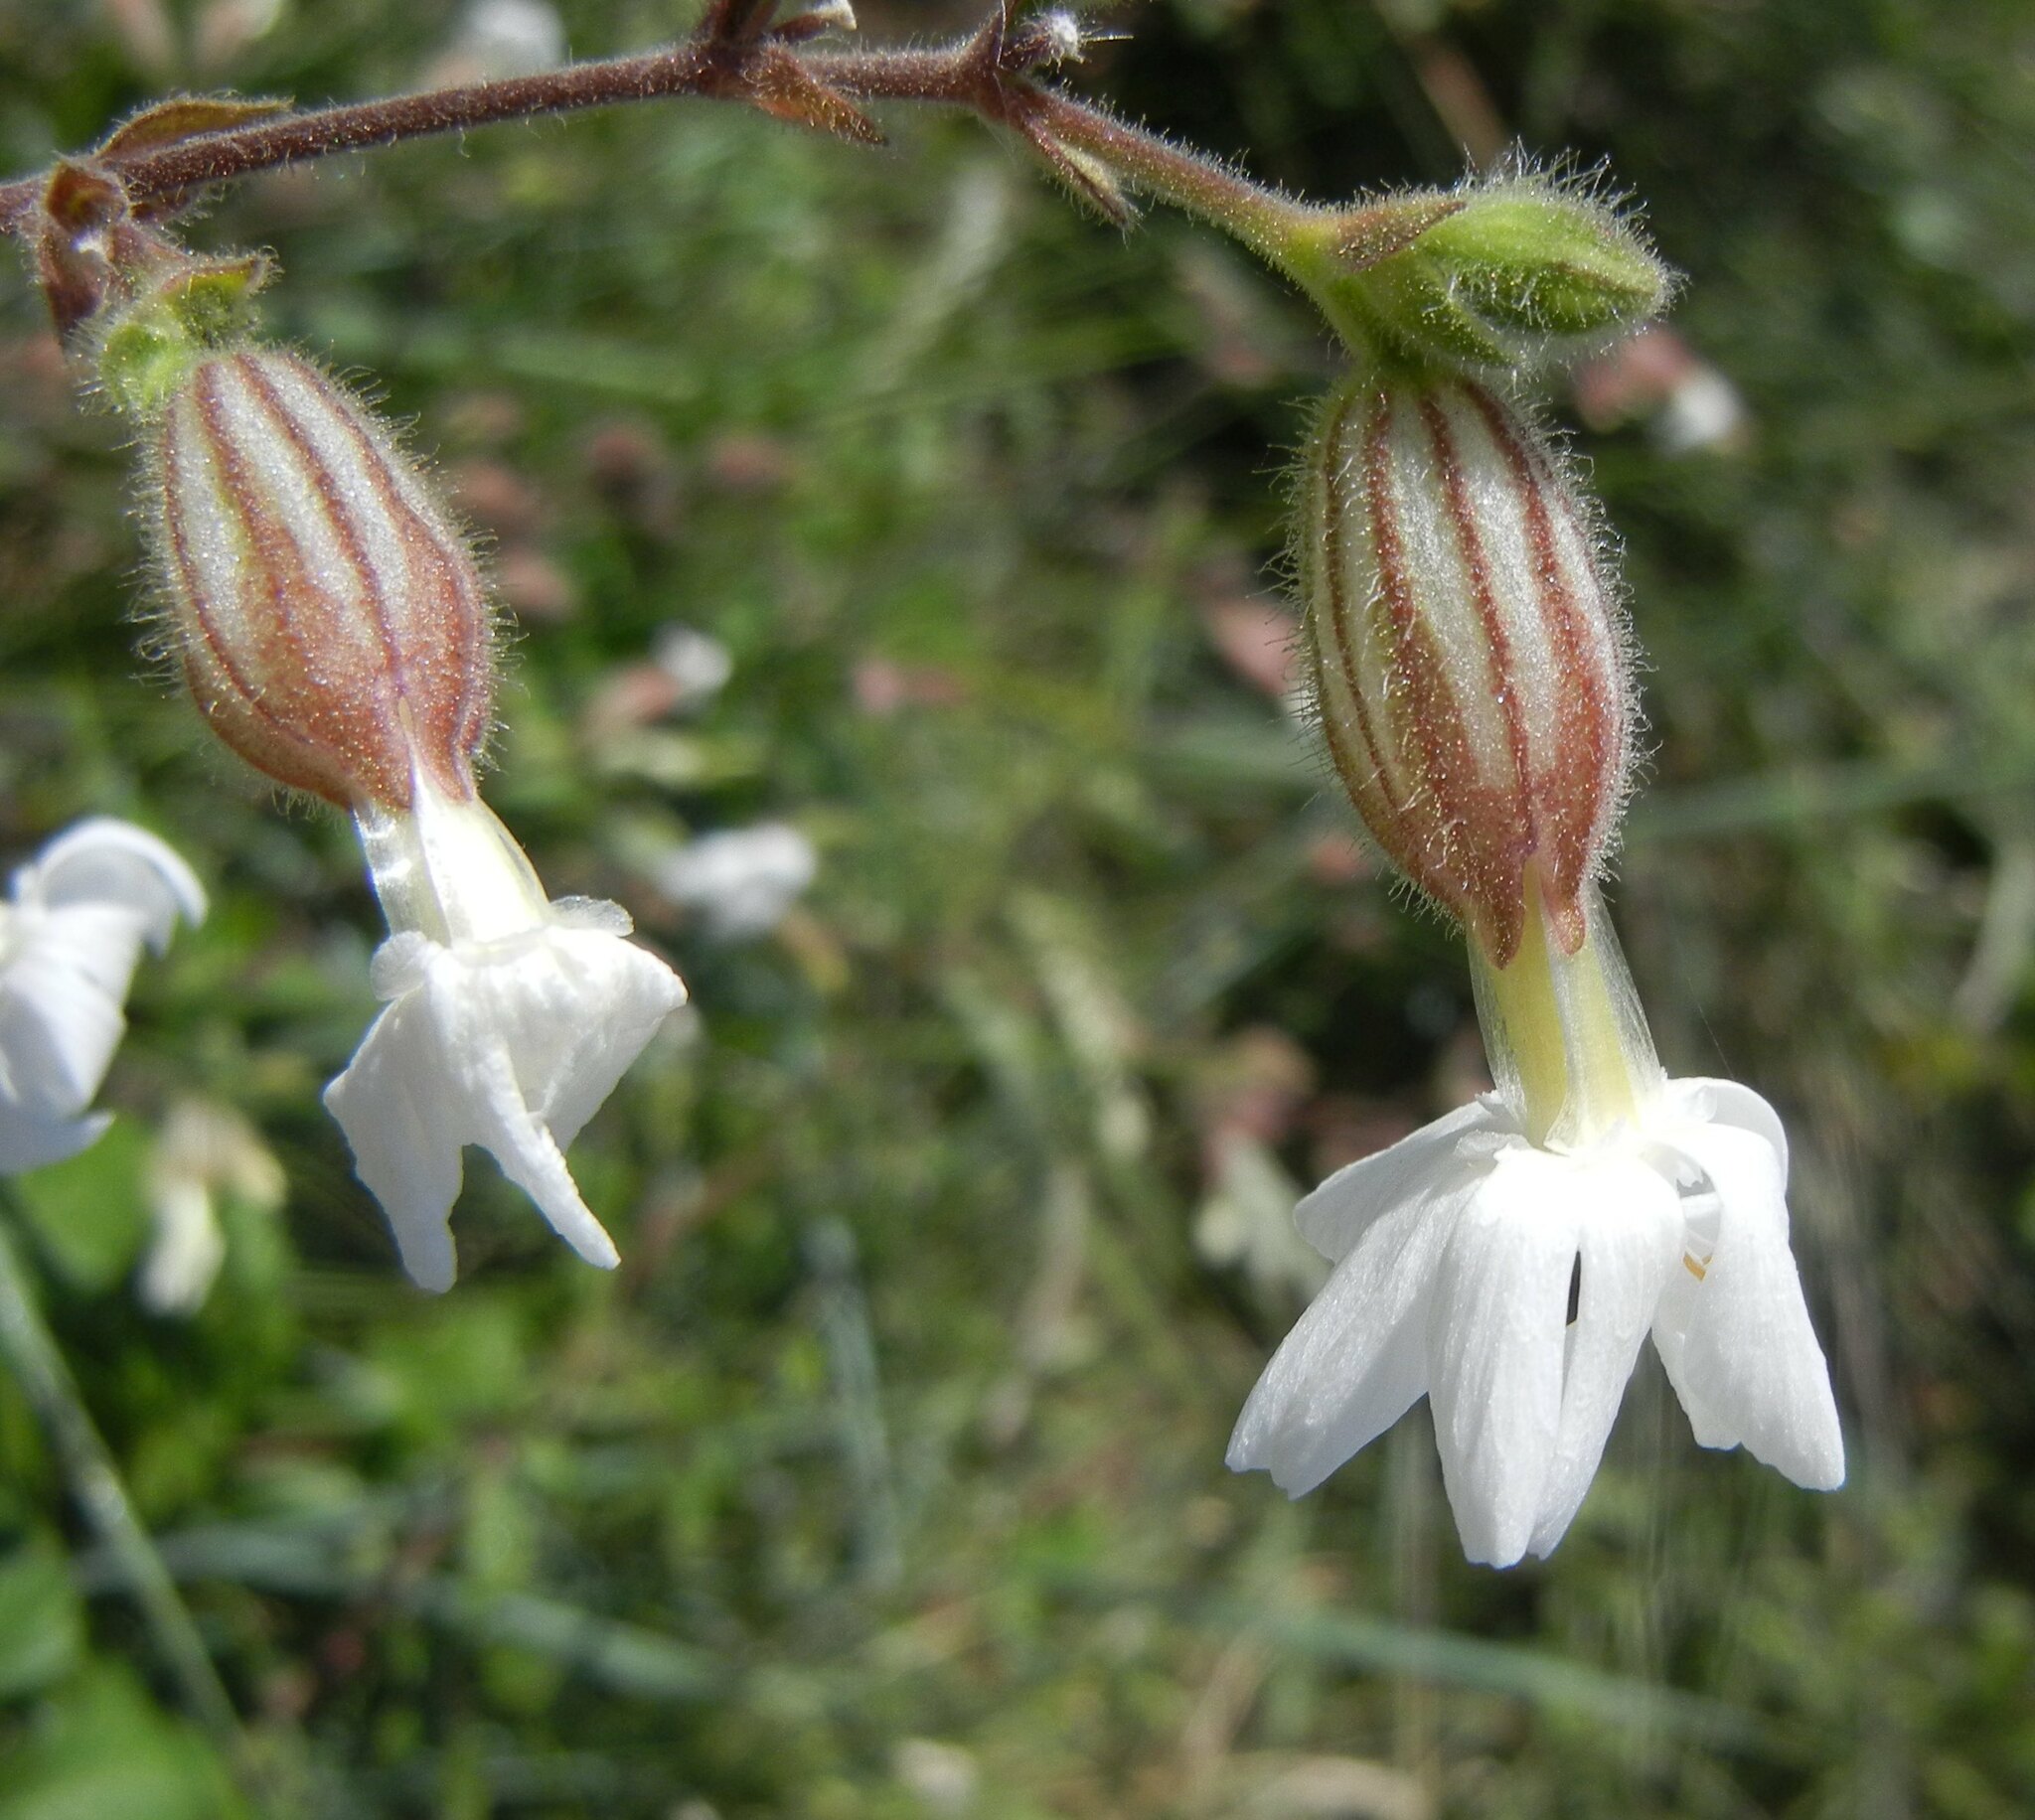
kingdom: Plantae
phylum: Tracheophyta
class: Magnoliopsida
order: Caryophyllales
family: Caryophyllaceae
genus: Silene
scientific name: Silene latifolia
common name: White campion
